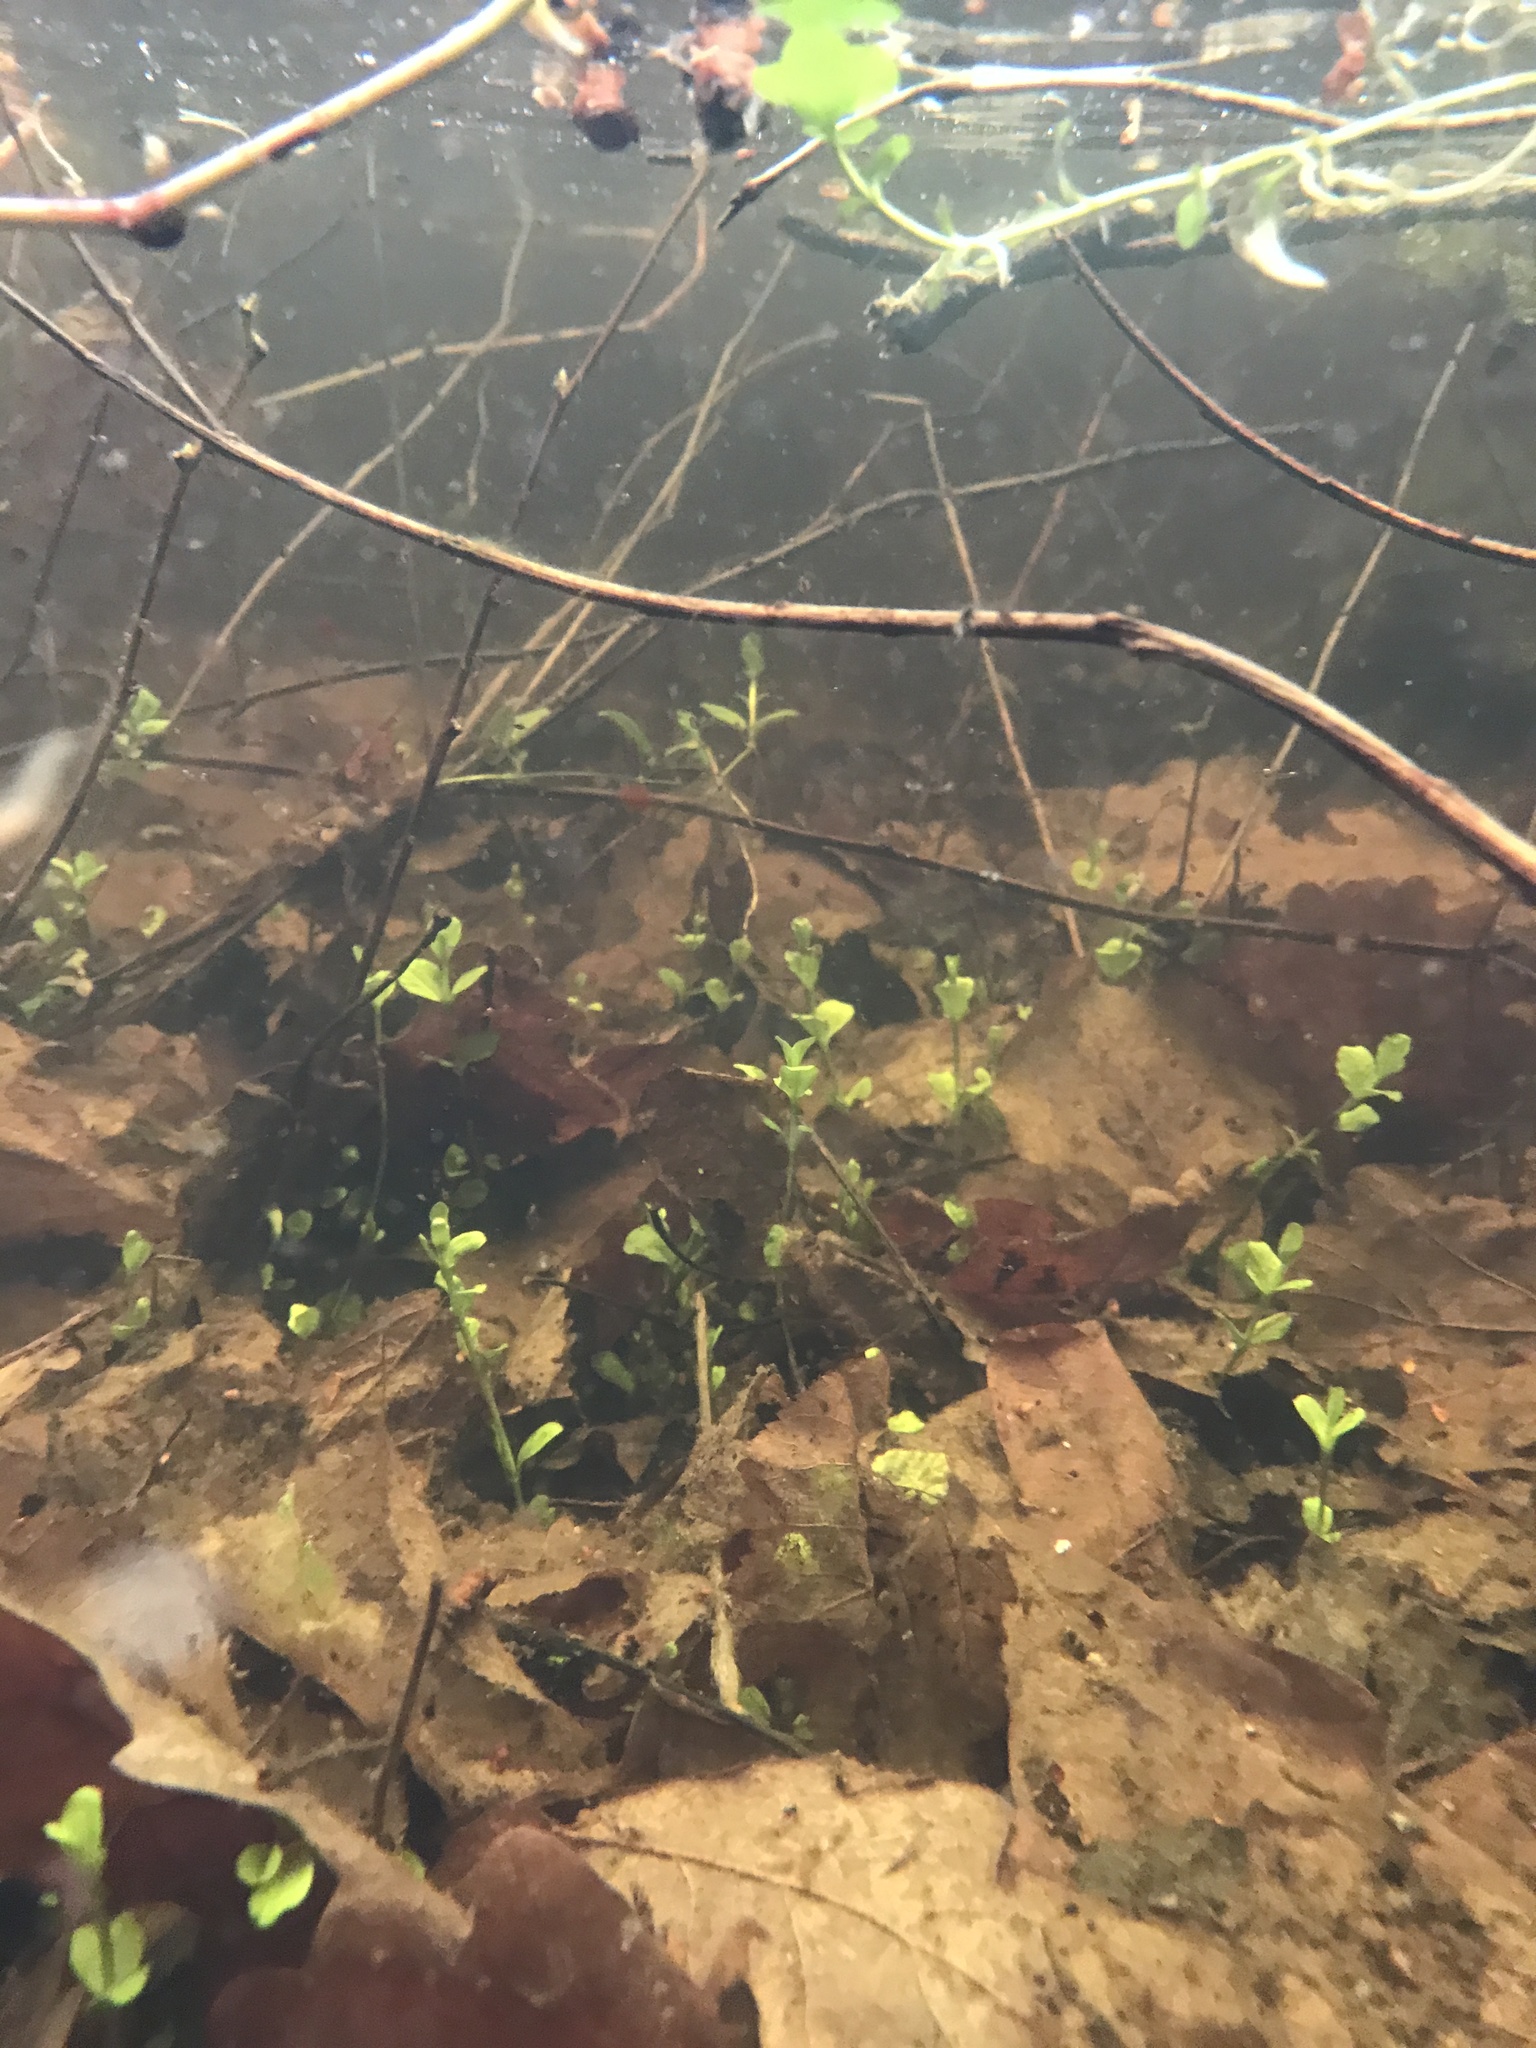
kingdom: Plantae
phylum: Tracheophyta
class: Magnoliopsida
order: Ericales
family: Primulaceae
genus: Lysimachia
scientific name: Lysimachia nummularia
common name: Moneywort
